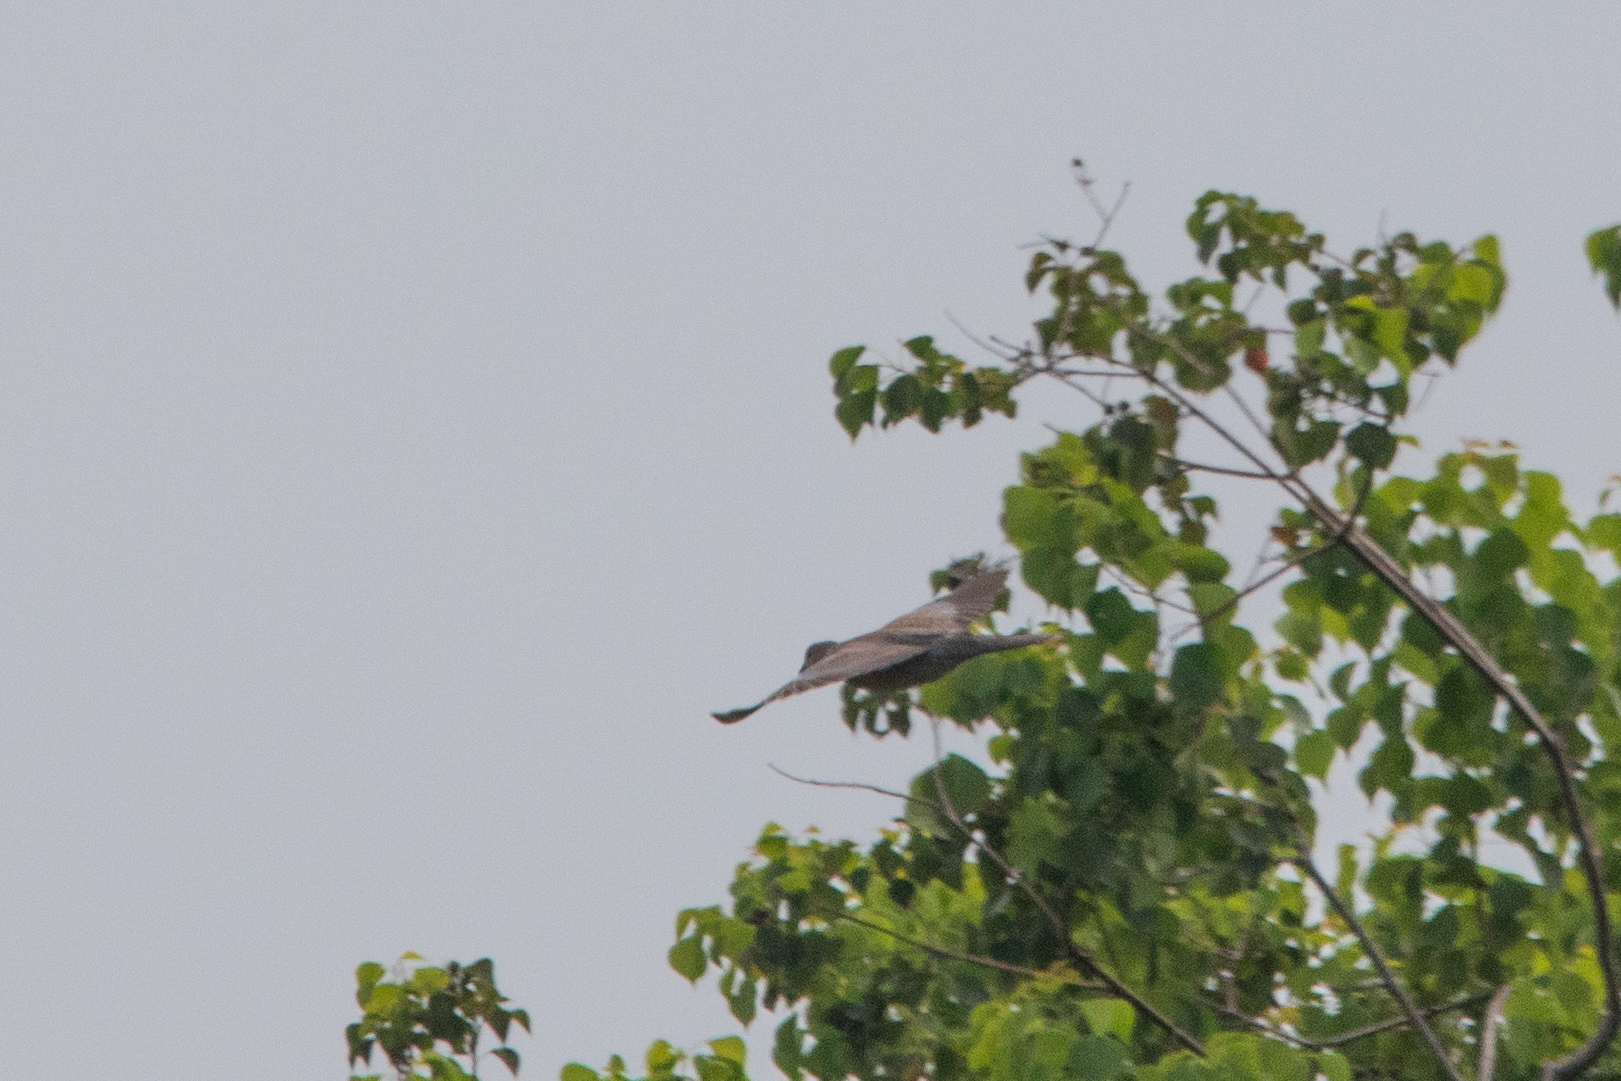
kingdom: Animalia
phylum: Chordata
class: Aves
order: Columbiformes
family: Columbidae
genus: Spilopelia
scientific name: Spilopelia chinensis
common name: Spotted dove
